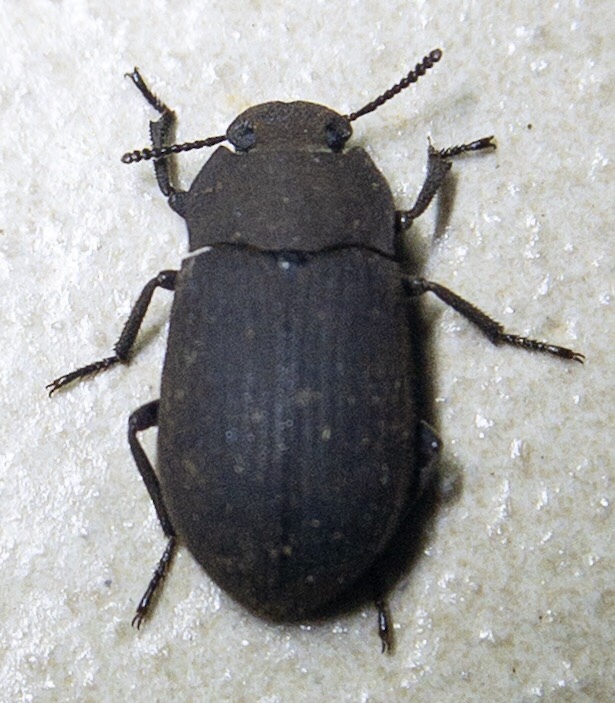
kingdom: Animalia
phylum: Arthropoda
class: Insecta
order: Coleoptera
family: Tenebrionidae
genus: Gonocephalum
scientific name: Gonocephalum
